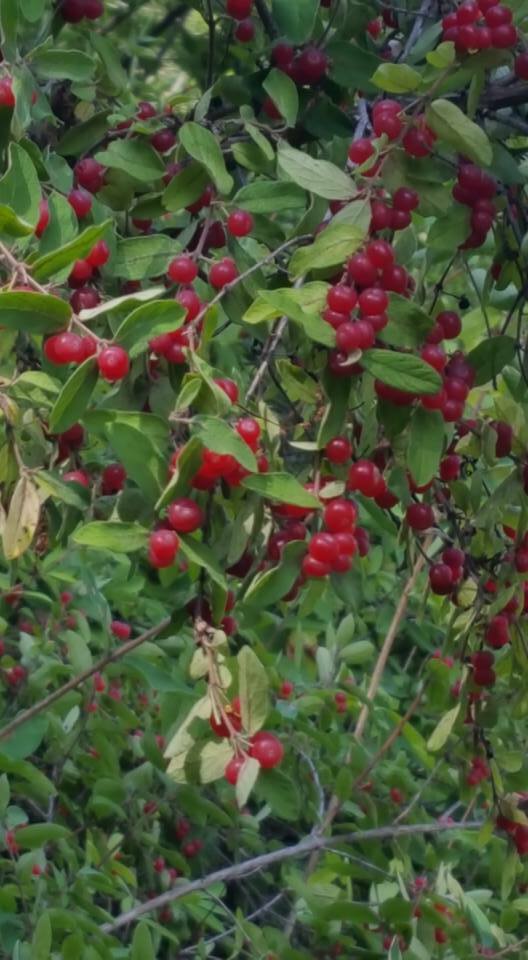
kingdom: Plantae
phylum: Tracheophyta
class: Magnoliopsida
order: Dipsacales
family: Caprifoliaceae
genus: Lonicera
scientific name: Lonicera
